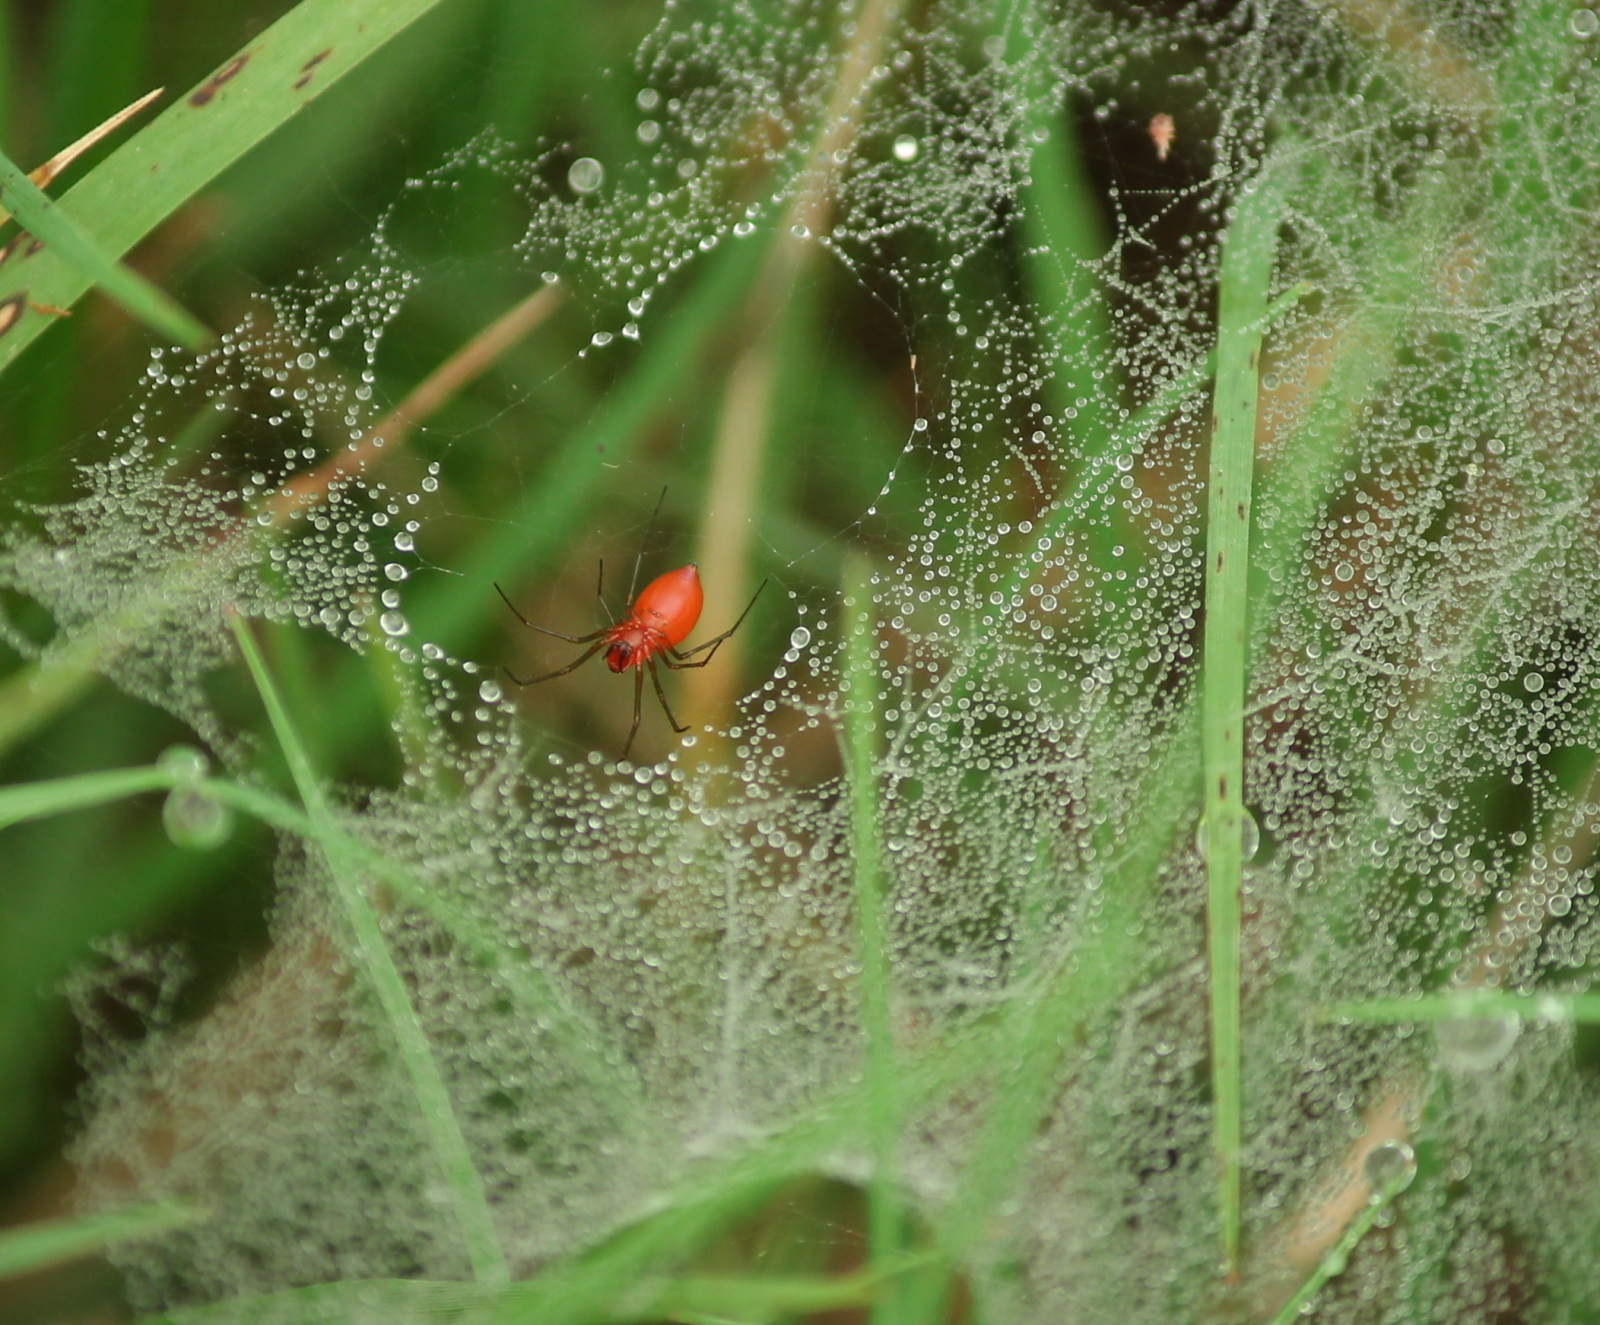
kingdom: Animalia
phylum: Arthropoda
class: Arachnida
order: Araneae
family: Linyphiidae
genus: Florinda
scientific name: Florinda coccinea
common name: Black-tailed red sheetweaver
